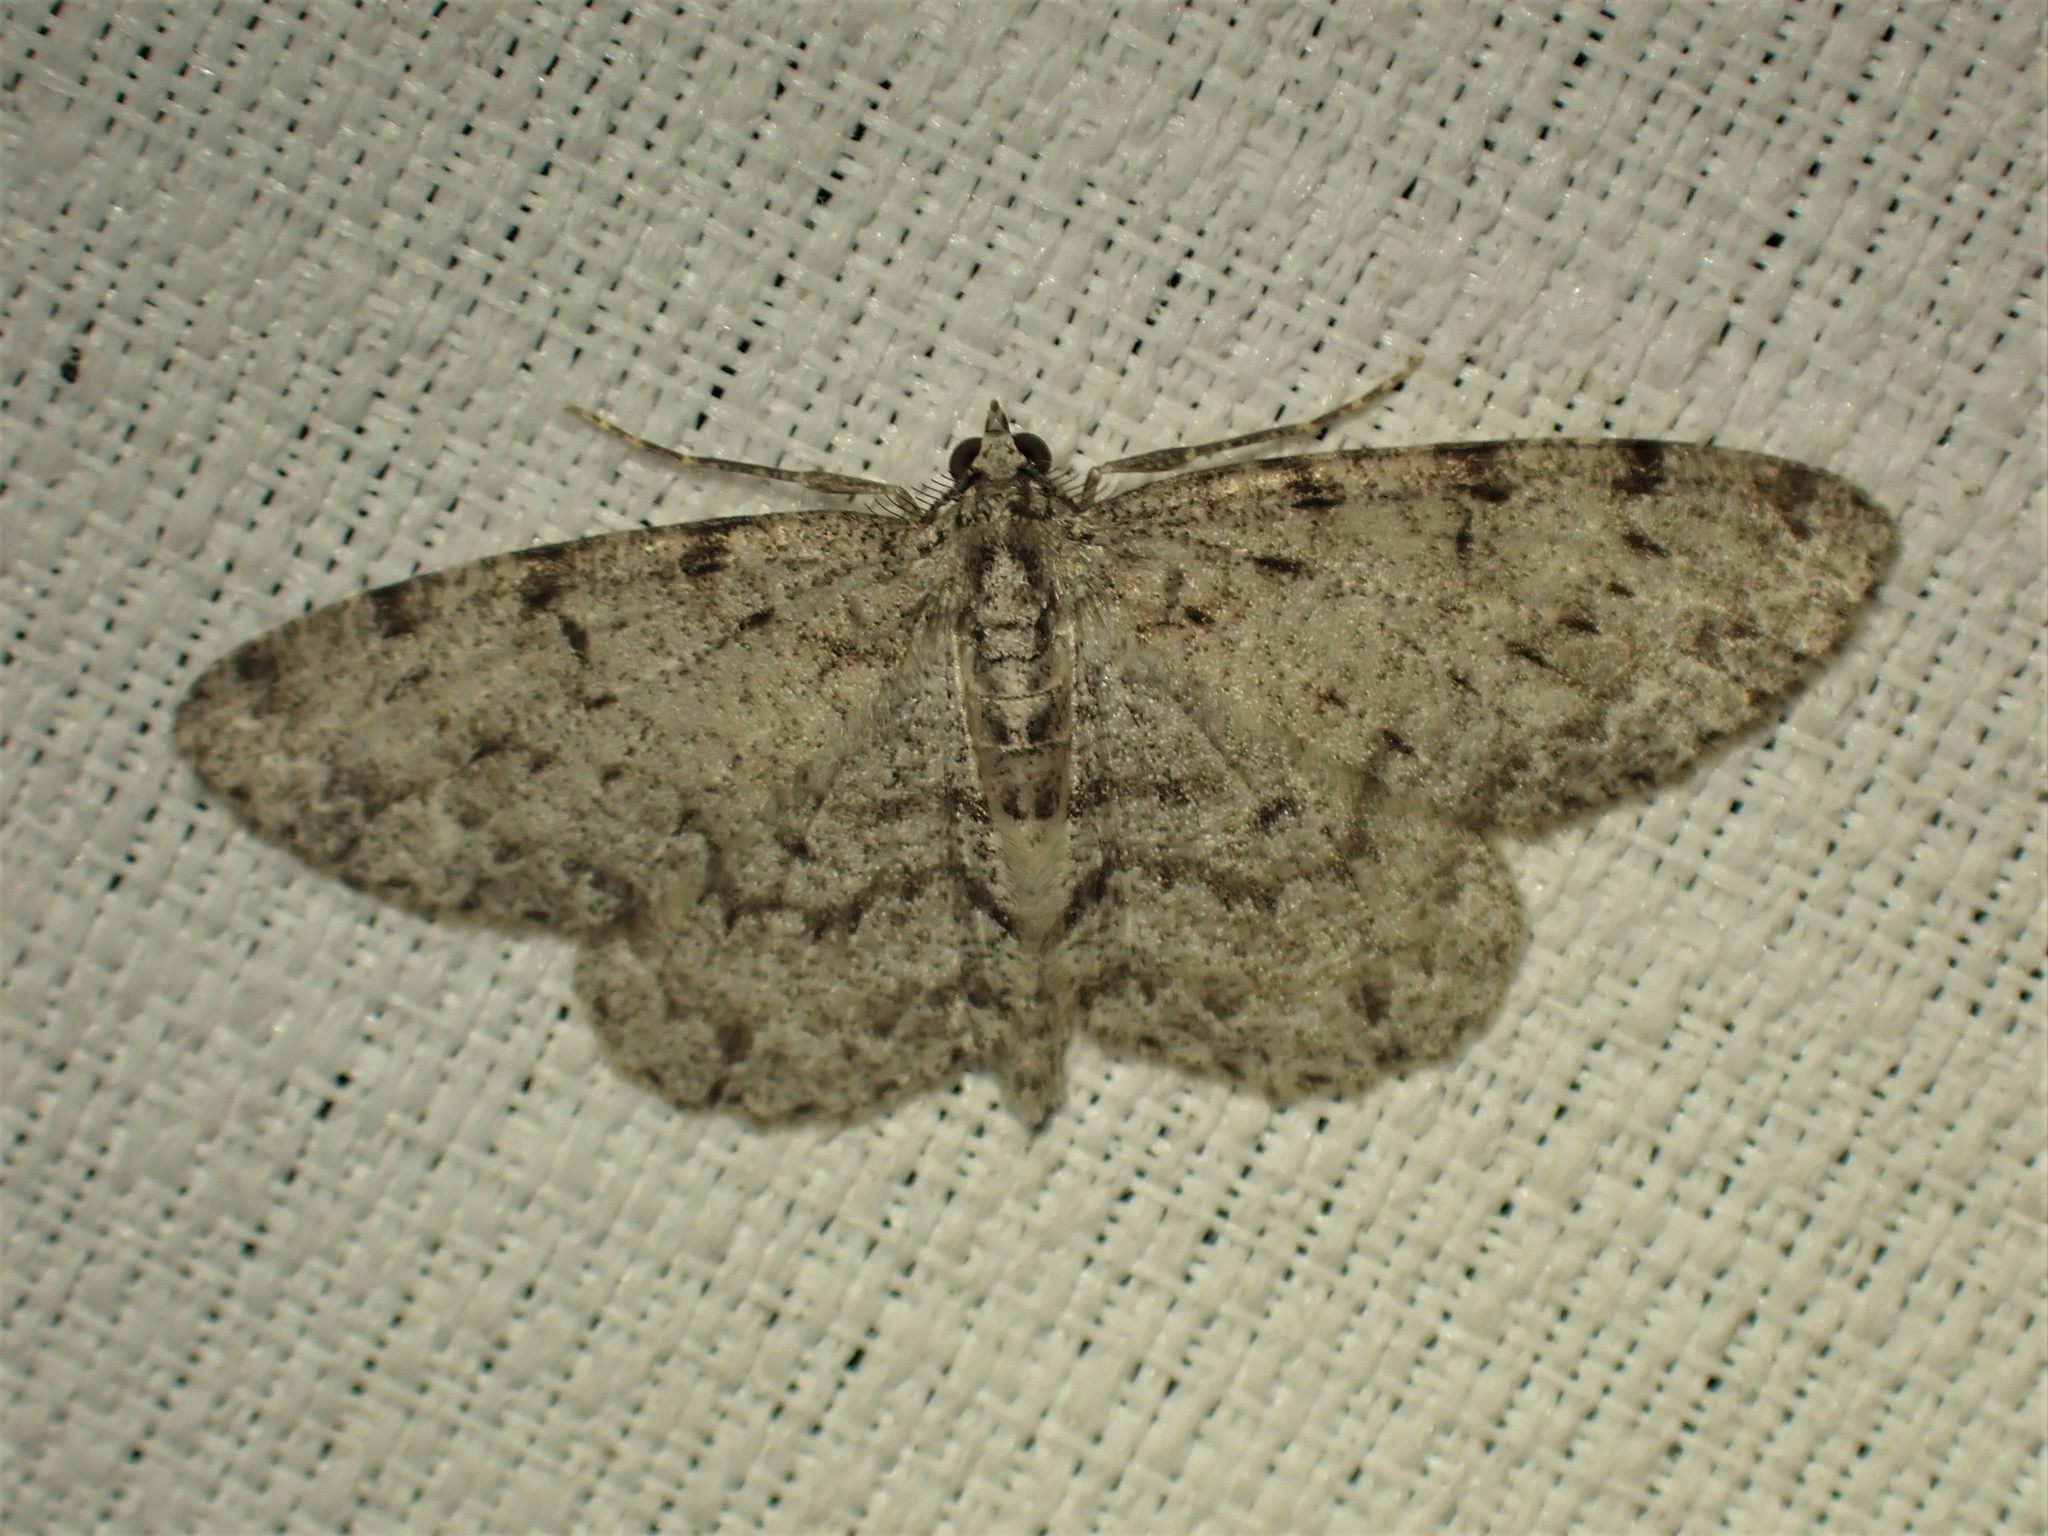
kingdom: Animalia
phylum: Arthropoda
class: Insecta
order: Lepidoptera
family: Geometridae
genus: Protoboarmia
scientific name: Protoboarmia porcelaria
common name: Porcelain gray
